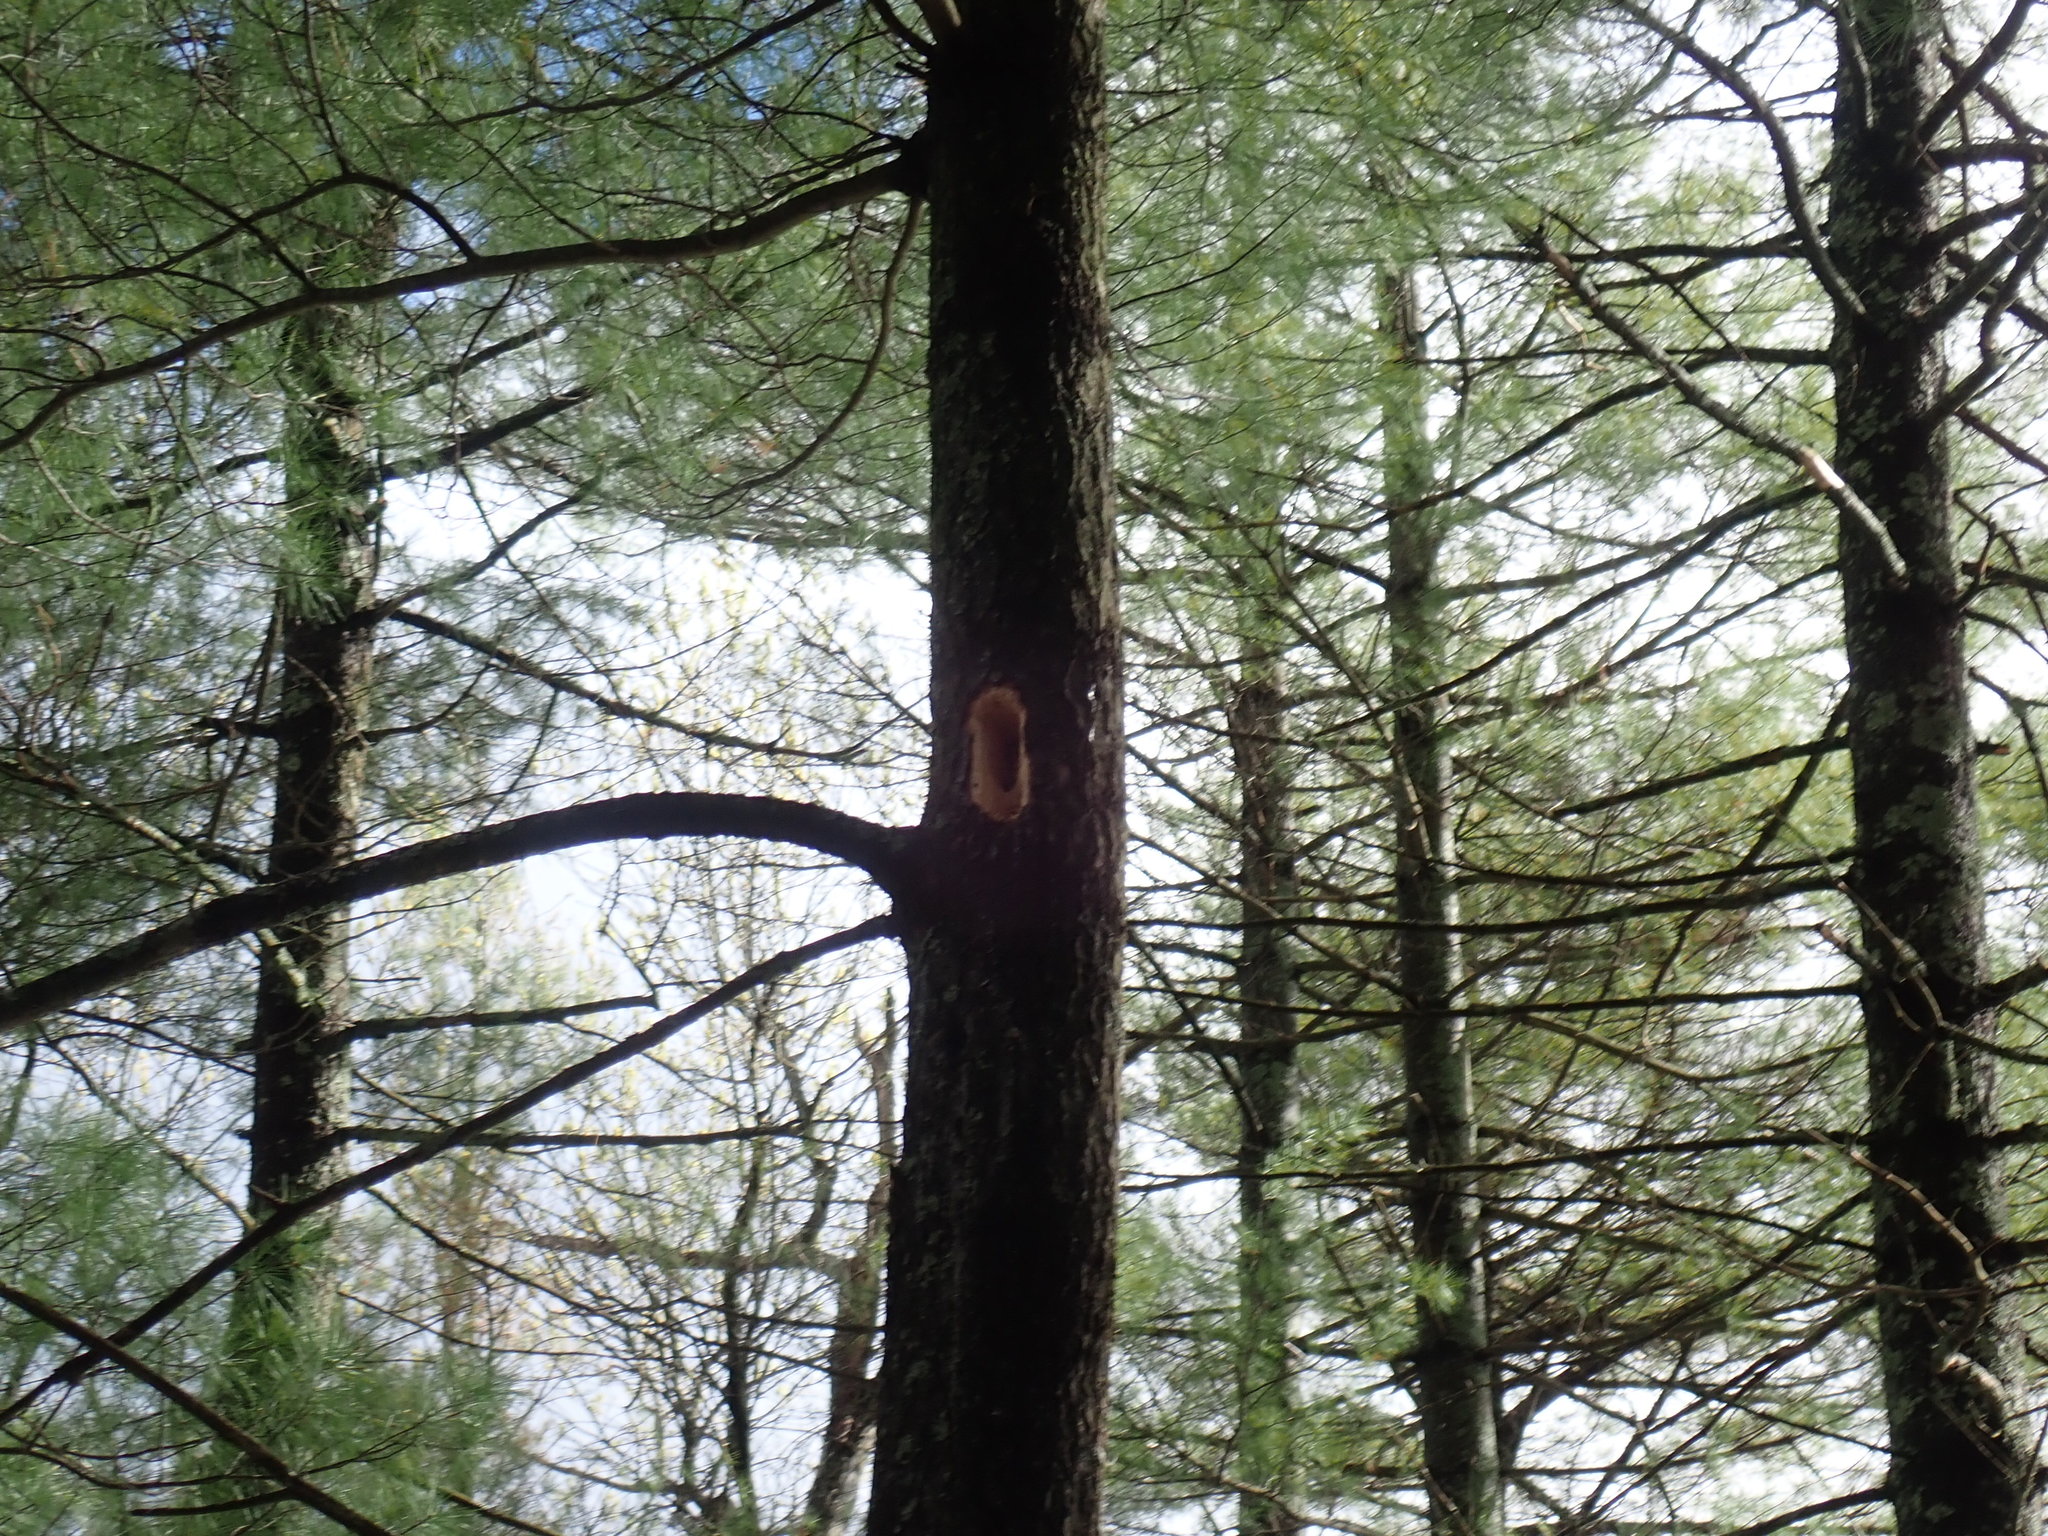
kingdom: Animalia
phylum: Chordata
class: Aves
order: Piciformes
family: Picidae
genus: Dryocopus
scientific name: Dryocopus pileatus
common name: Pileated woodpecker
